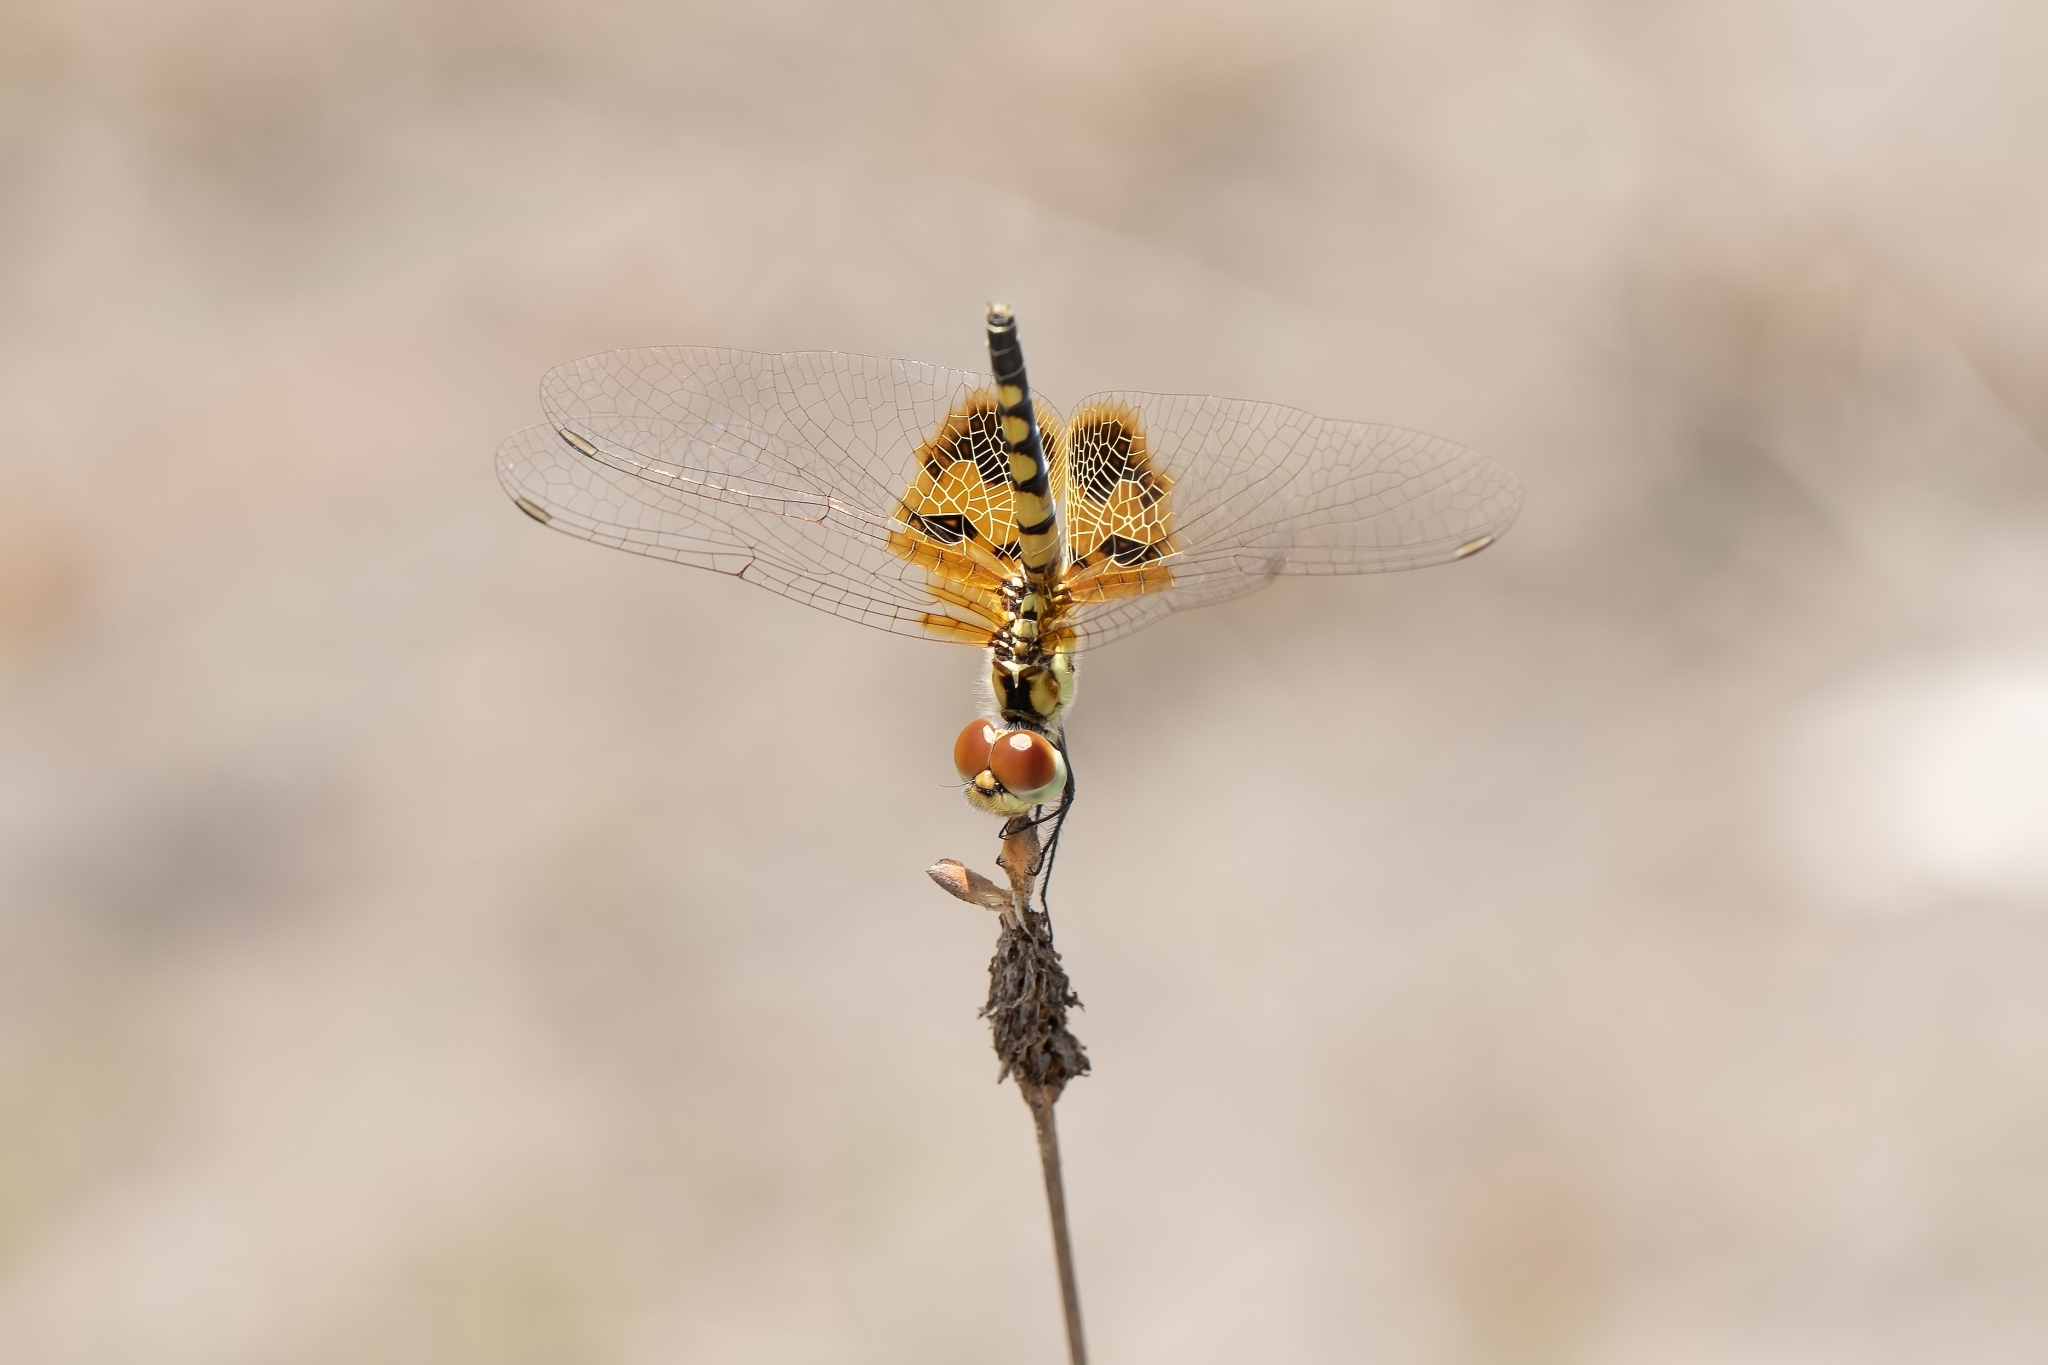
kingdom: Animalia
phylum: Arthropoda
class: Insecta
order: Odonata
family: Libellulidae
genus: Celithemis
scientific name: Celithemis amanda
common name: Amanda's pennant
